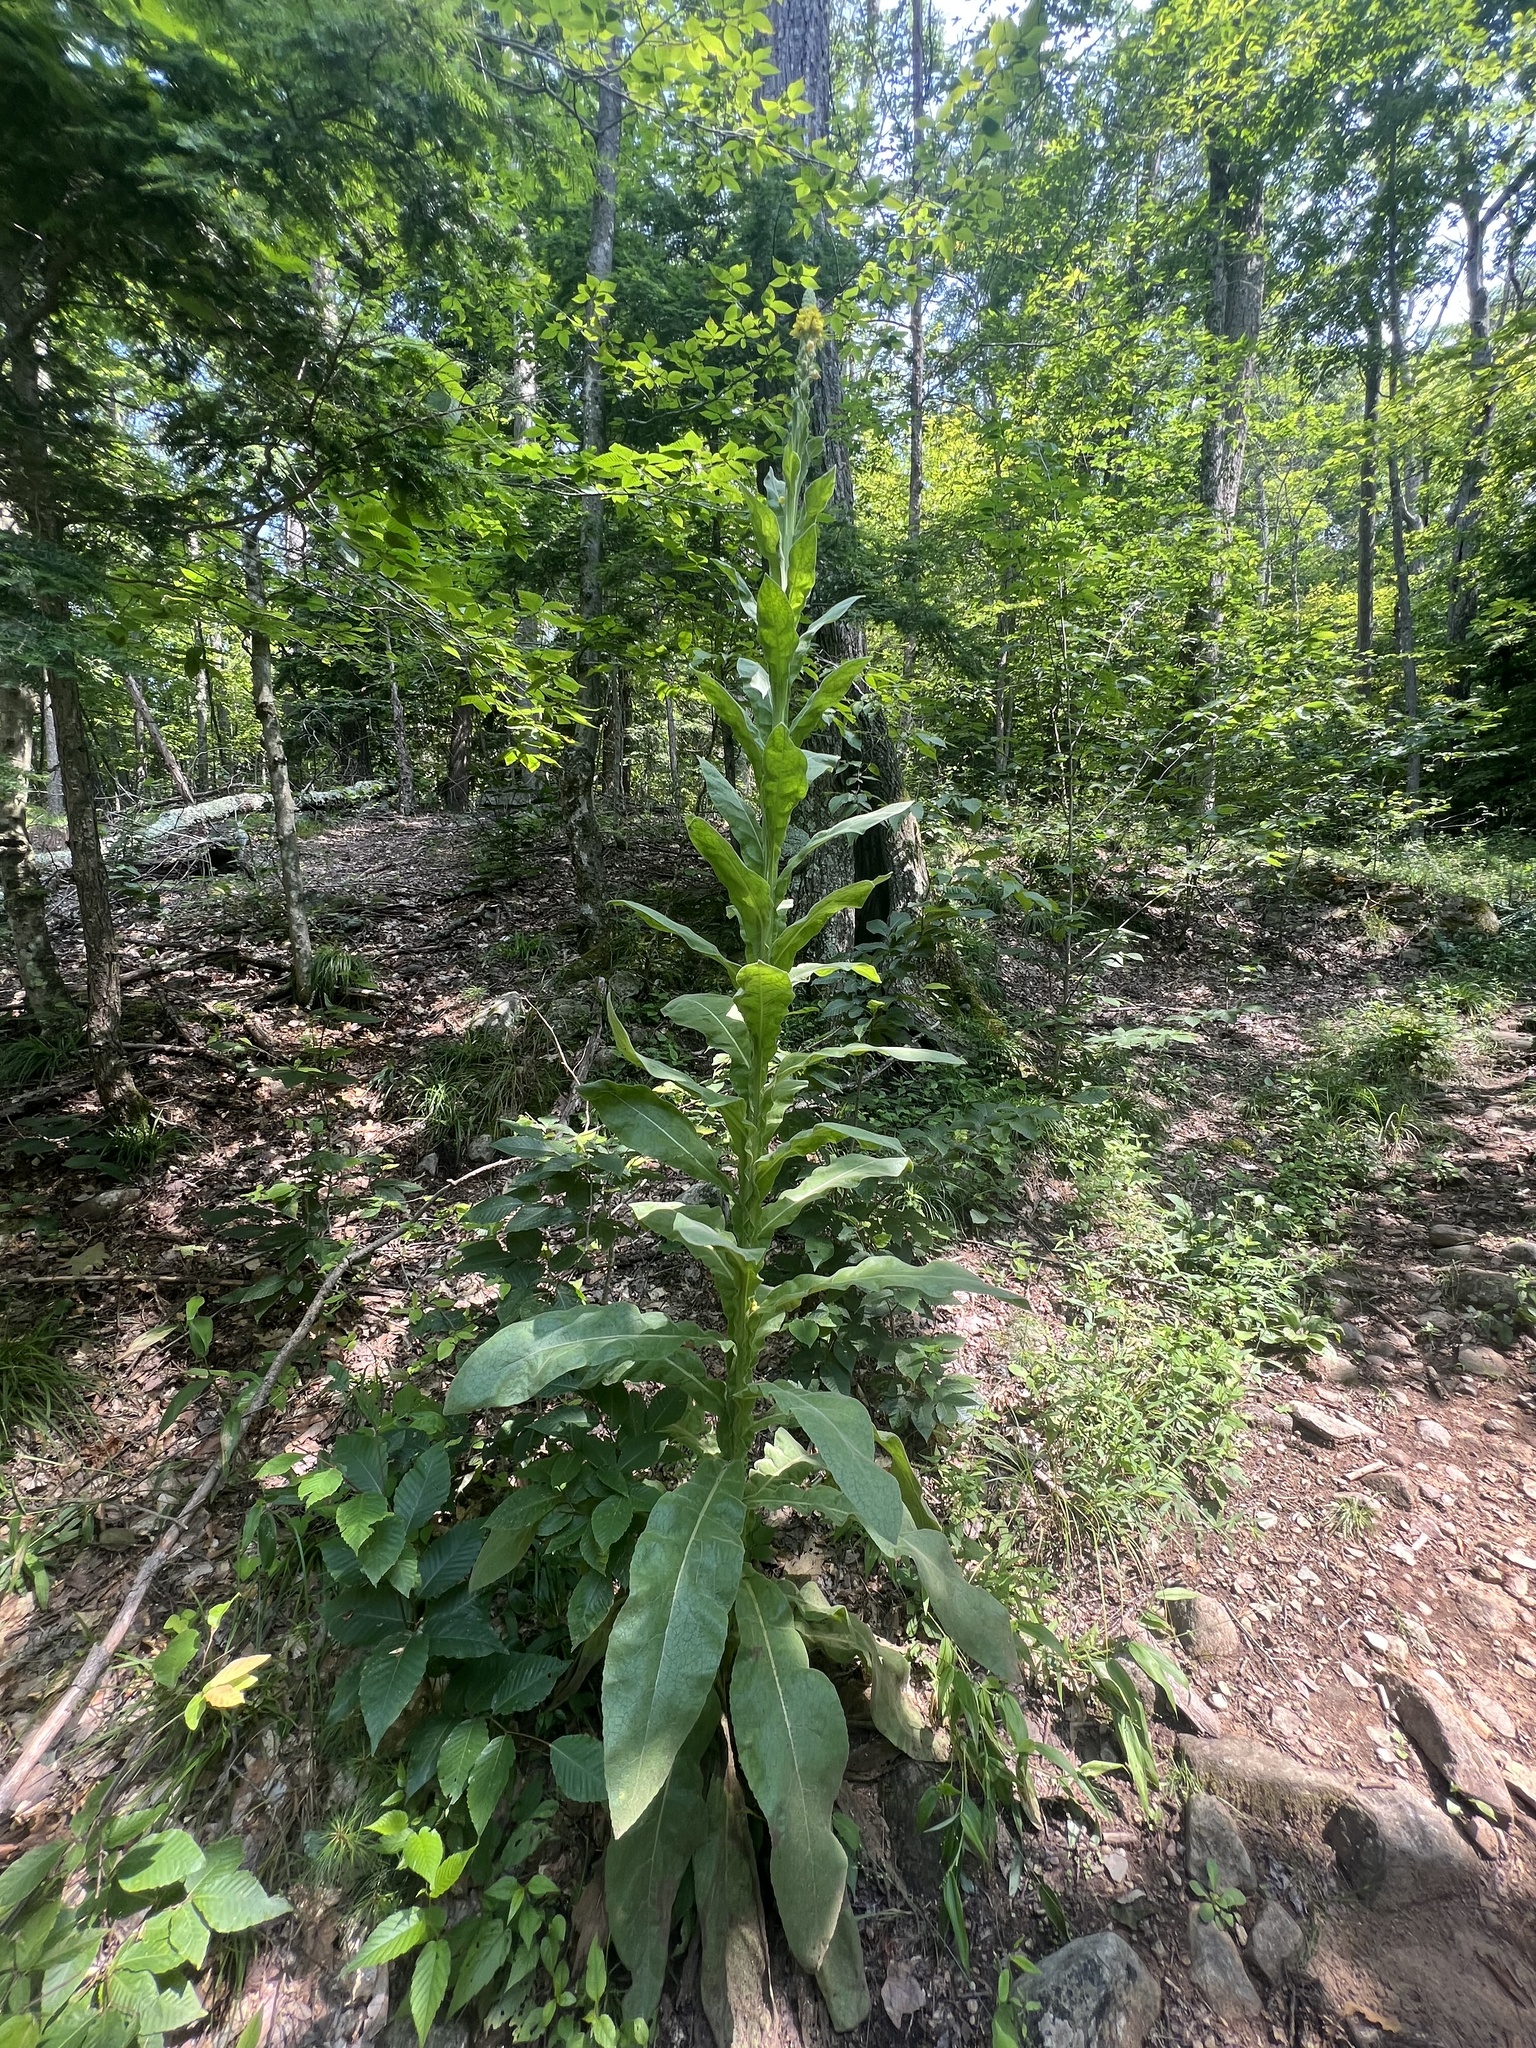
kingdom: Plantae
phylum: Tracheophyta
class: Magnoliopsida
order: Lamiales
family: Scrophulariaceae
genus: Verbascum
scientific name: Verbascum thapsus
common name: Common mullein
